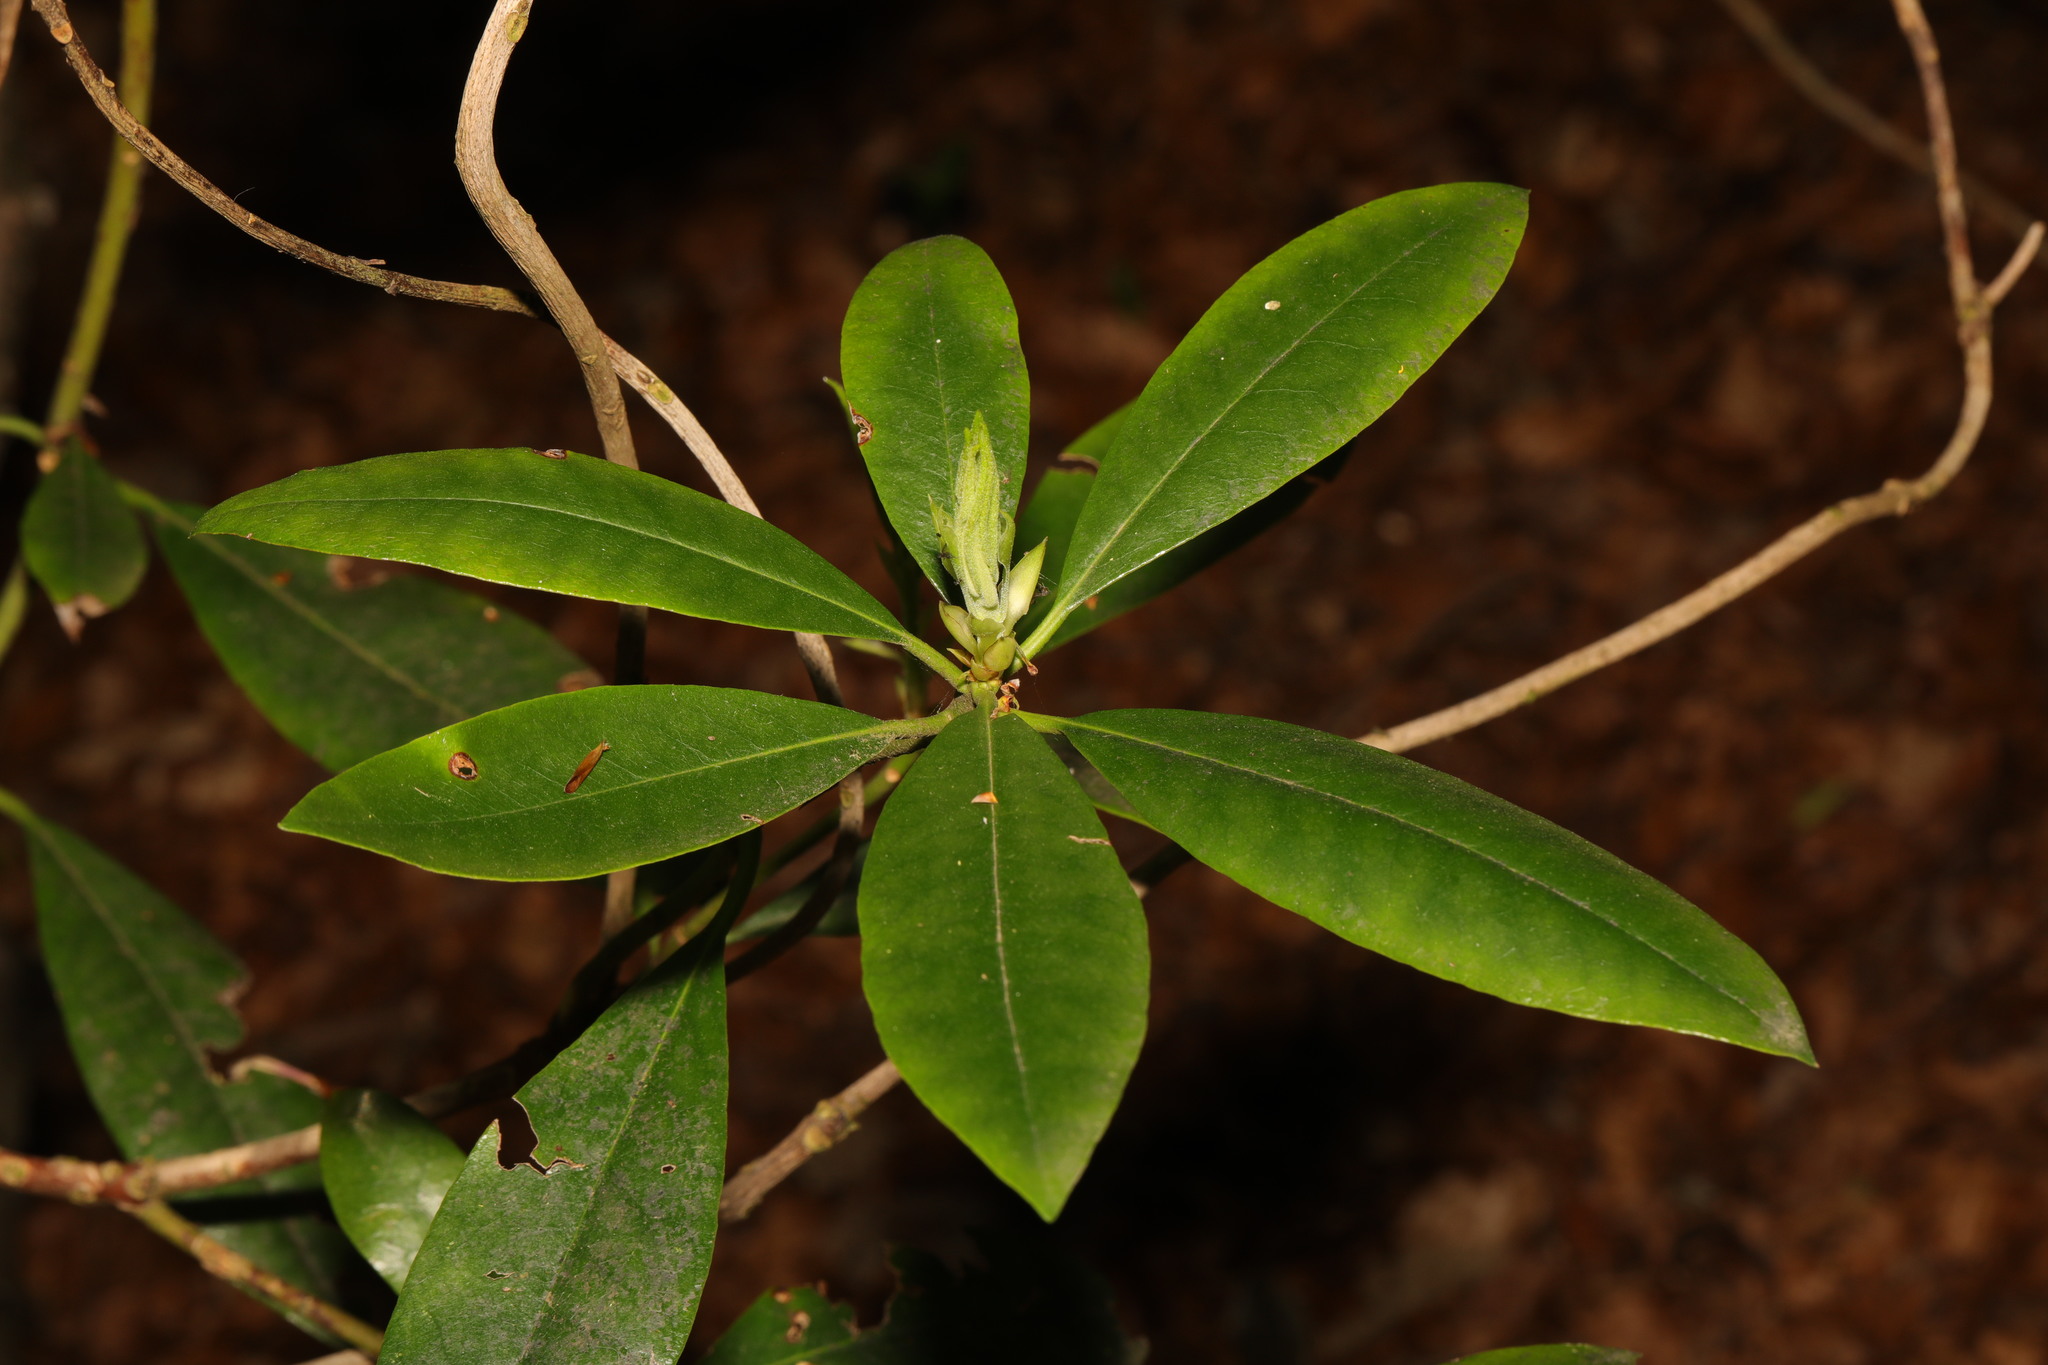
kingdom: Plantae
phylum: Tracheophyta
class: Magnoliopsida
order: Ericales
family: Ericaceae
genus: Rhododendron
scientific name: Rhododendron ponticum
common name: Rhododendron
